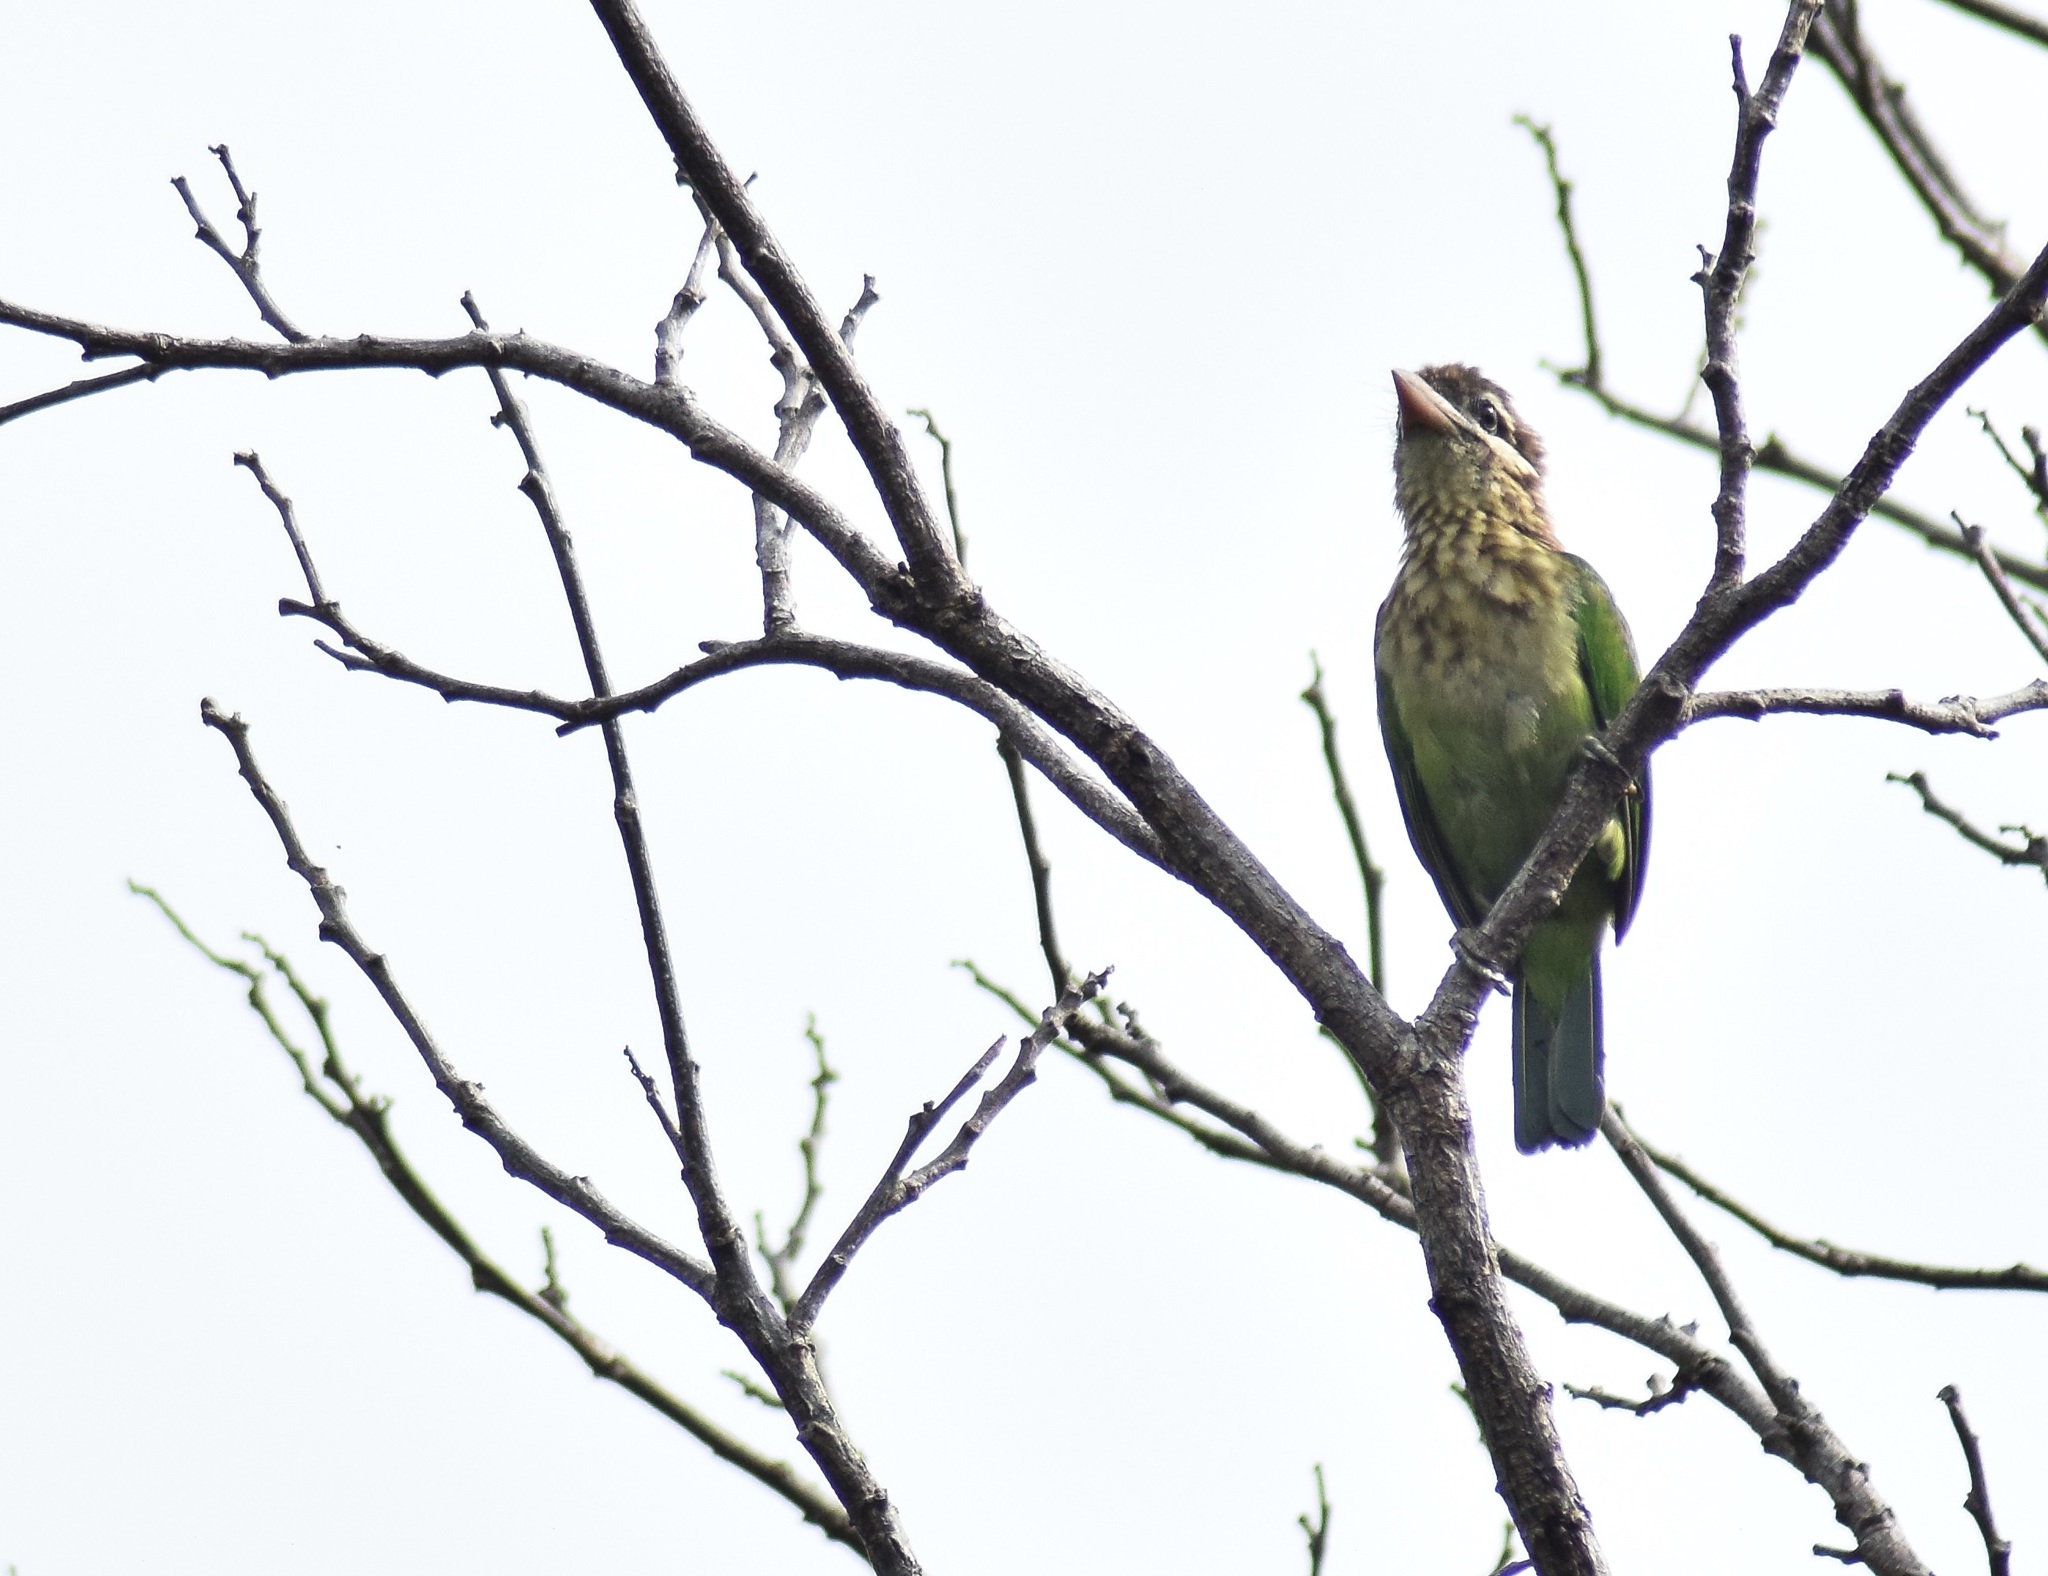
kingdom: Animalia
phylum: Chordata
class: Aves
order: Piciformes
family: Megalaimidae
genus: Psilopogon
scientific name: Psilopogon viridis
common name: White-cheeked barbet
